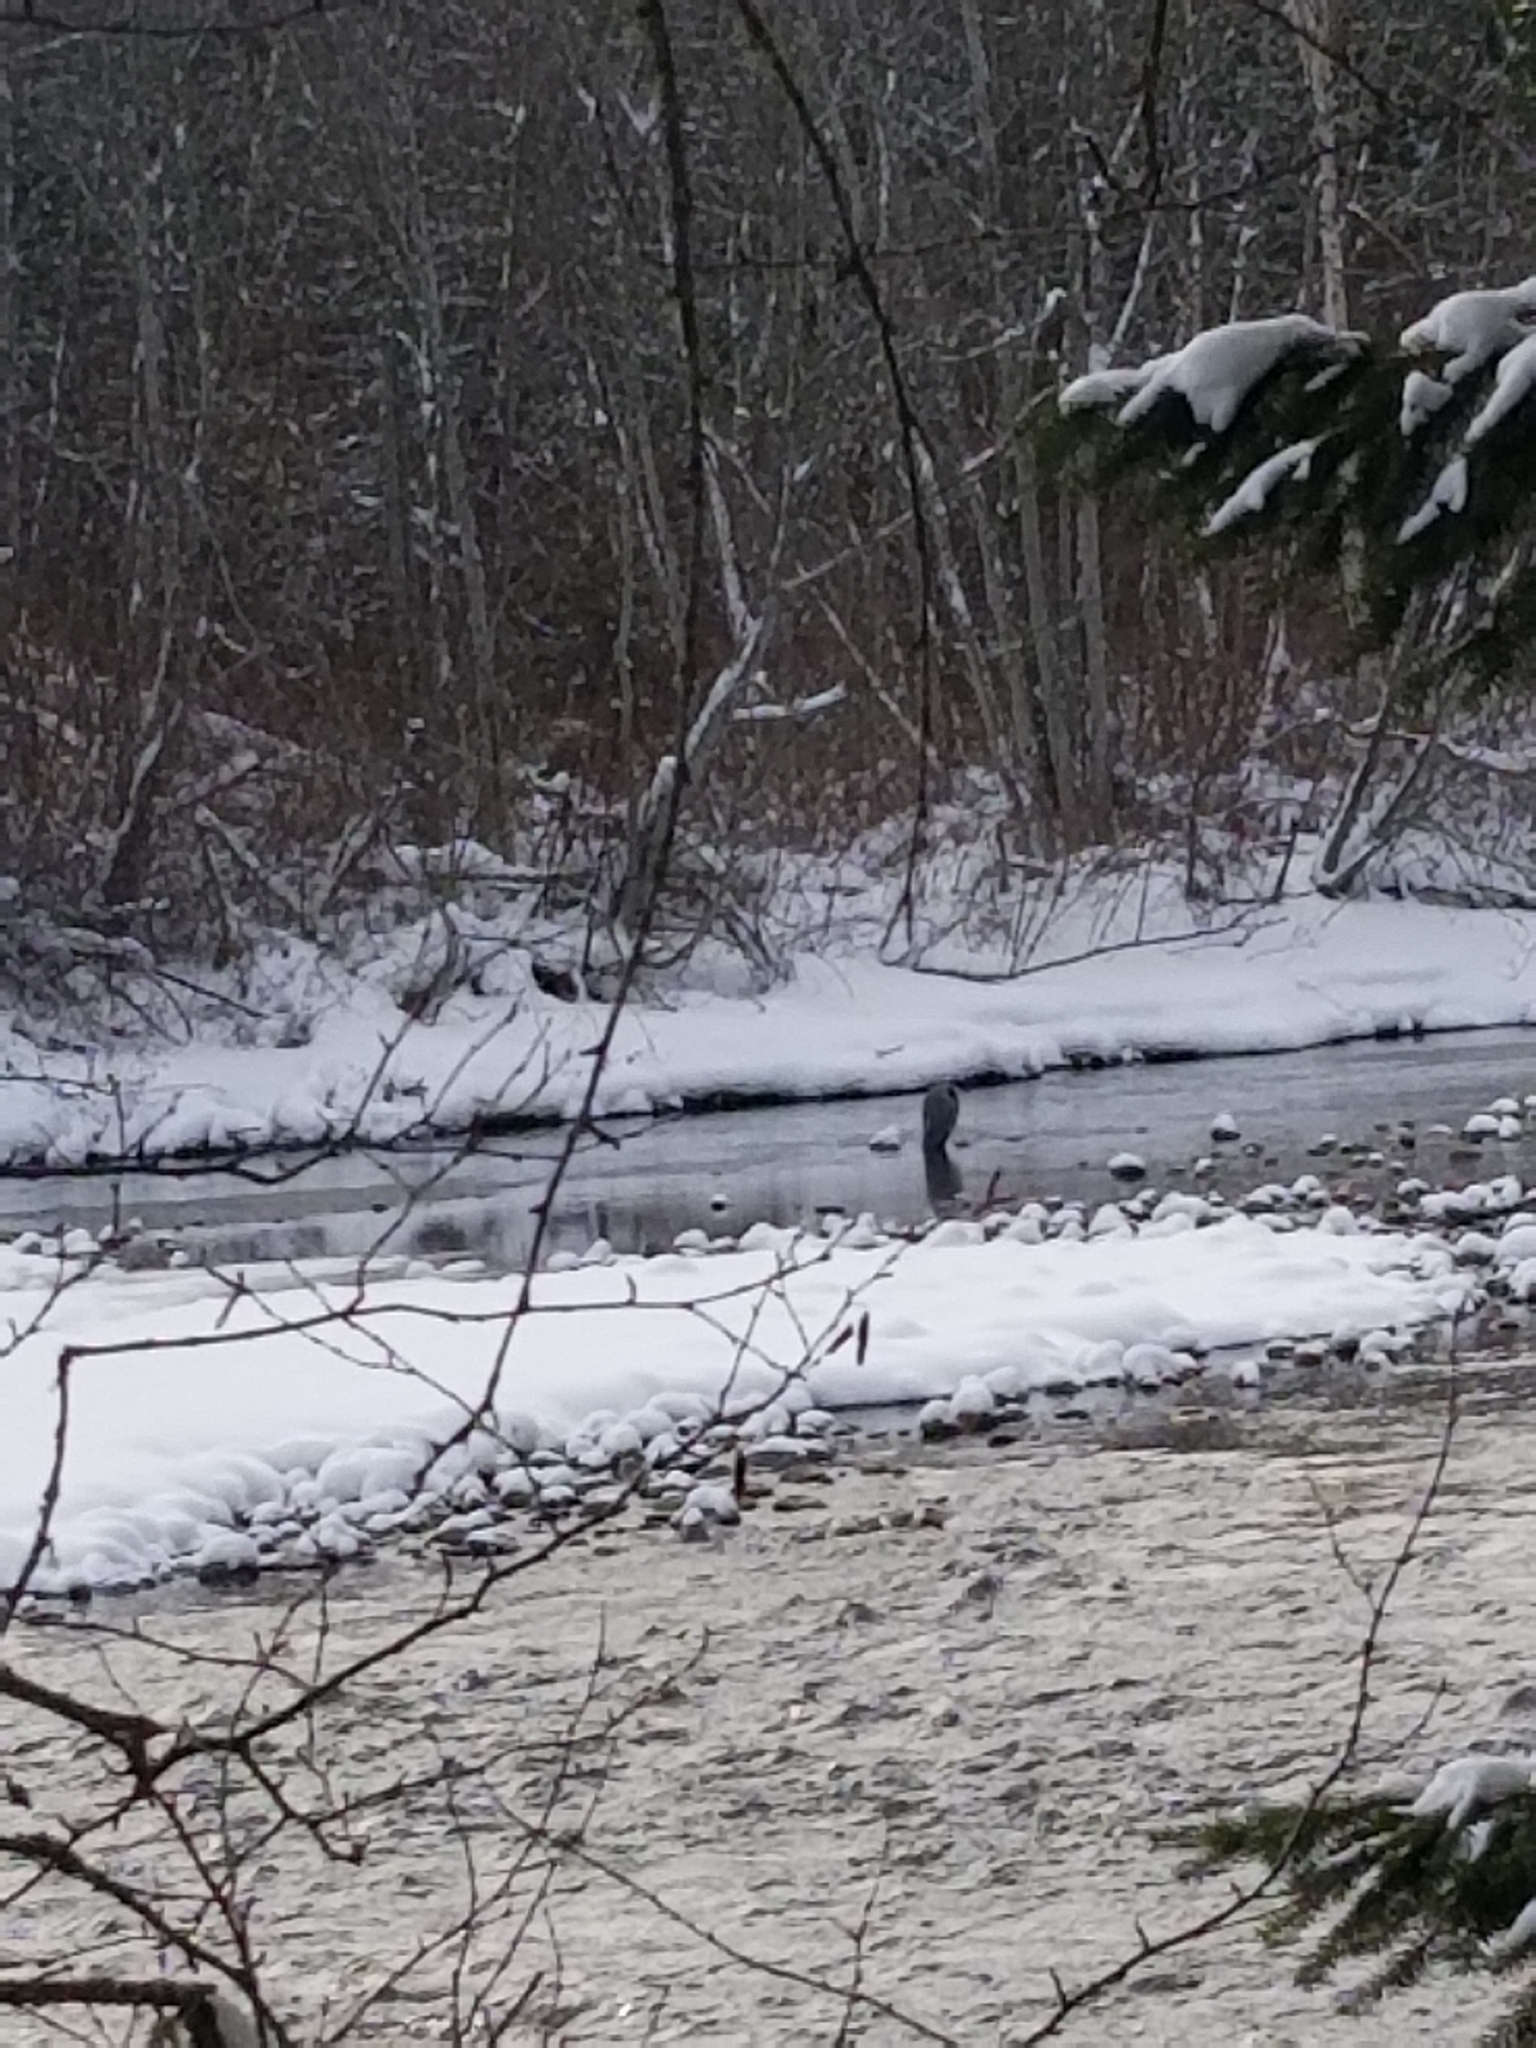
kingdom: Animalia
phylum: Chordata
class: Aves
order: Pelecaniformes
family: Ardeidae
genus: Ardea
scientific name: Ardea herodias
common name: Great blue heron
